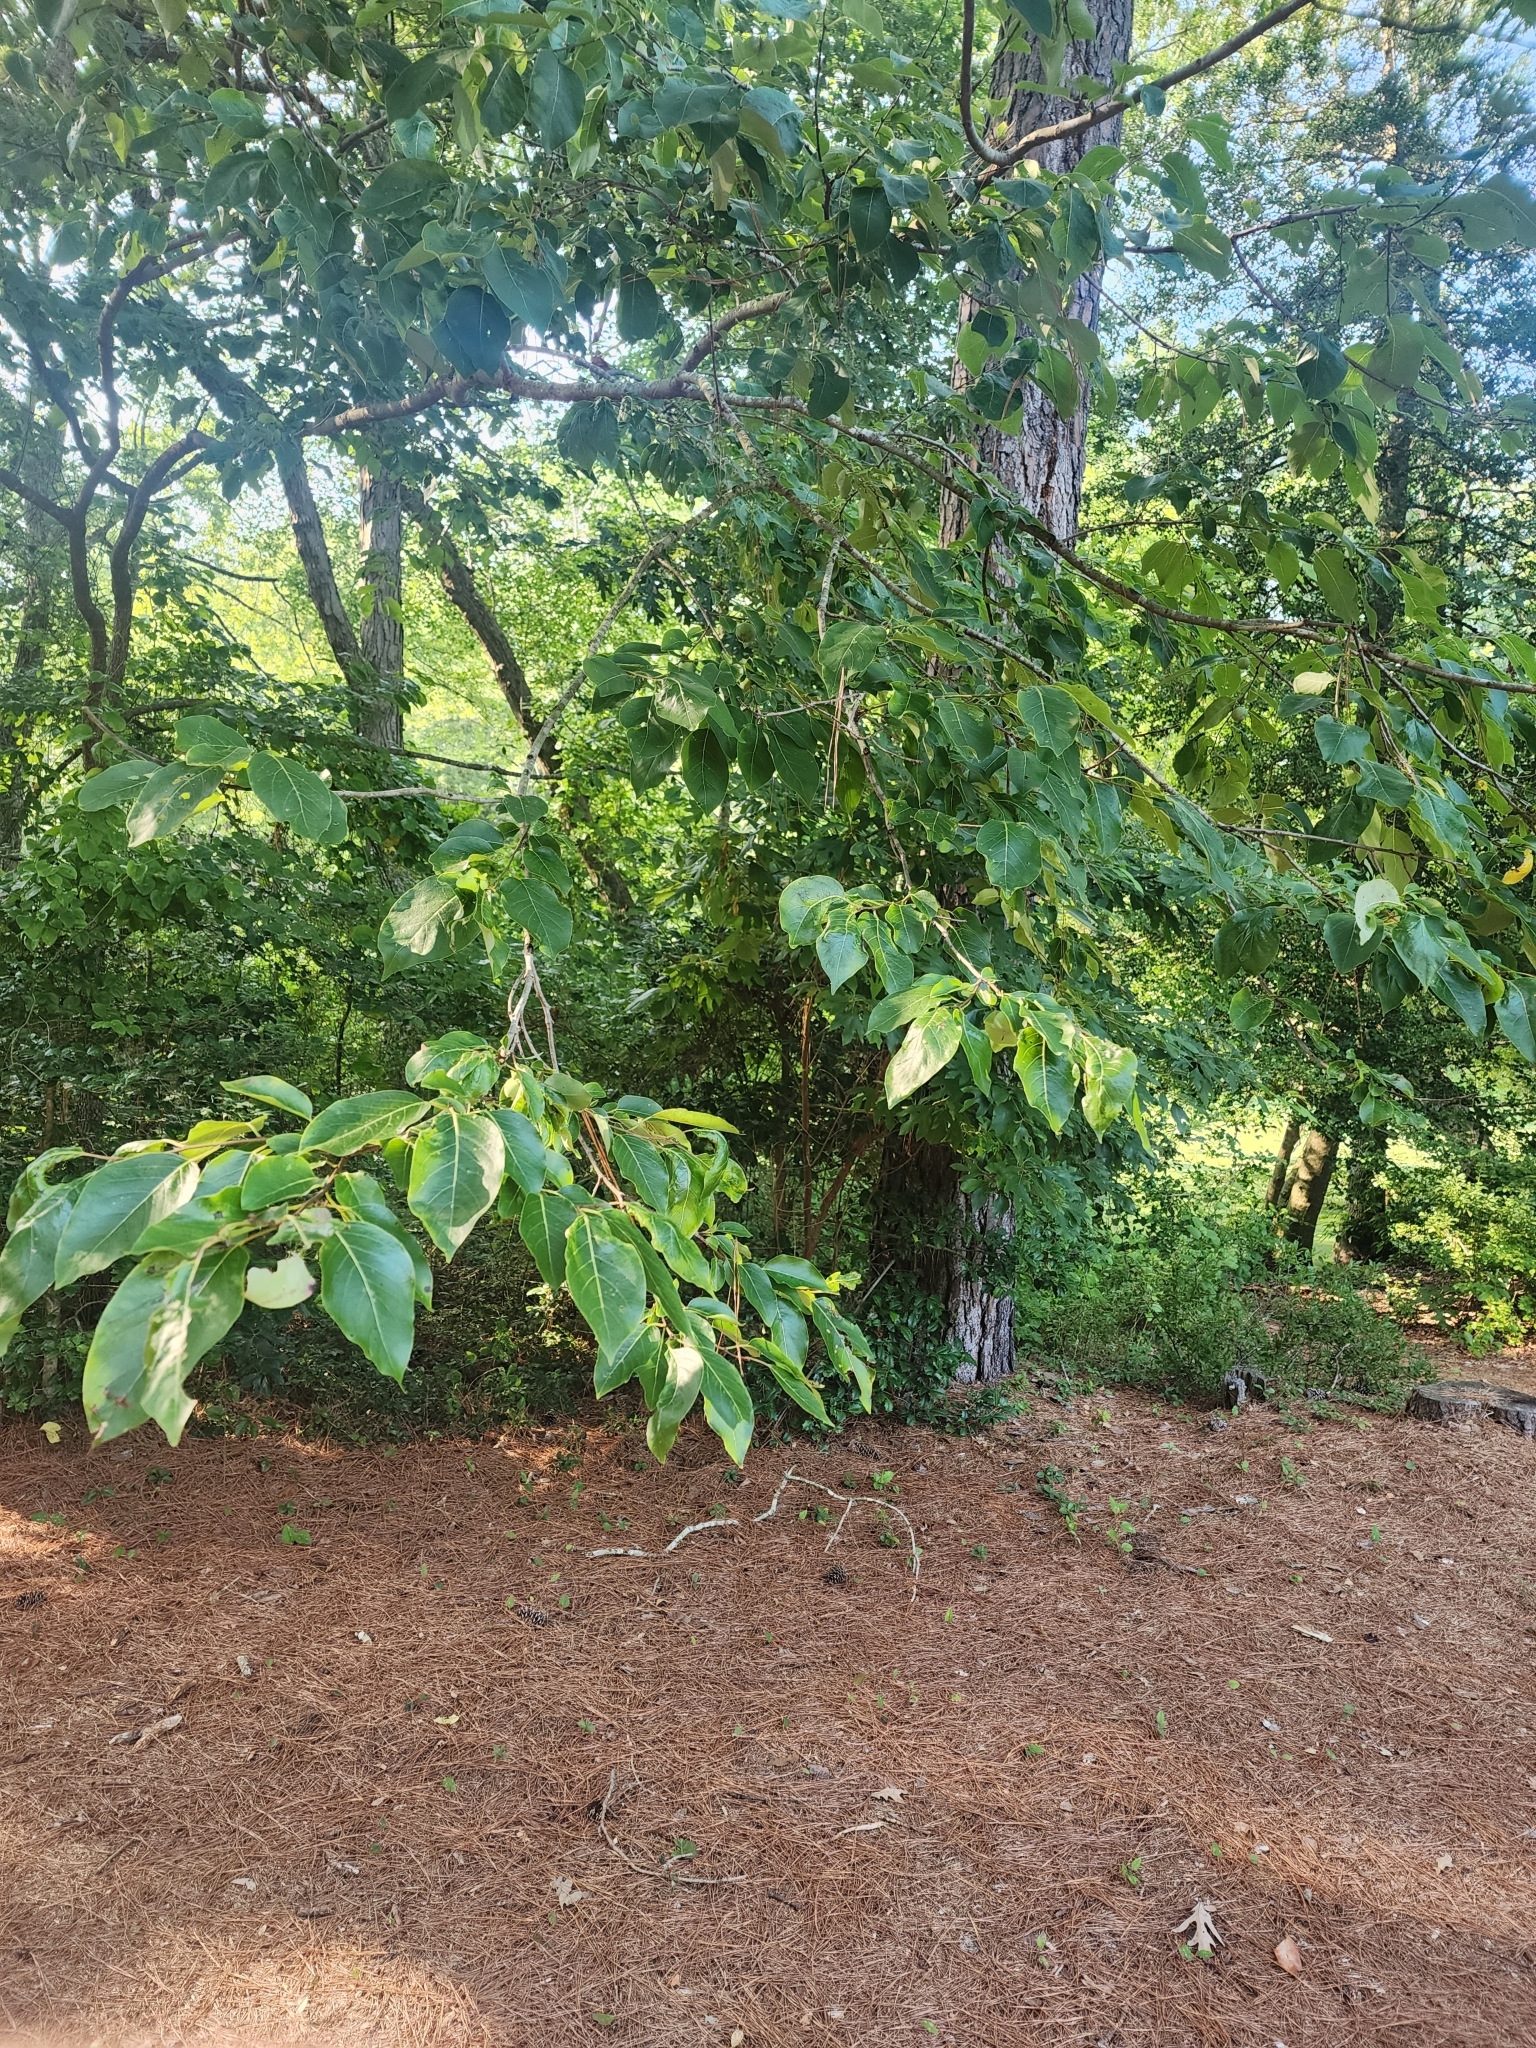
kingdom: Plantae
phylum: Tracheophyta
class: Magnoliopsida
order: Ericales
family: Ebenaceae
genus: Diospyros
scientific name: Diospyros virginiana
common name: Persimmon
